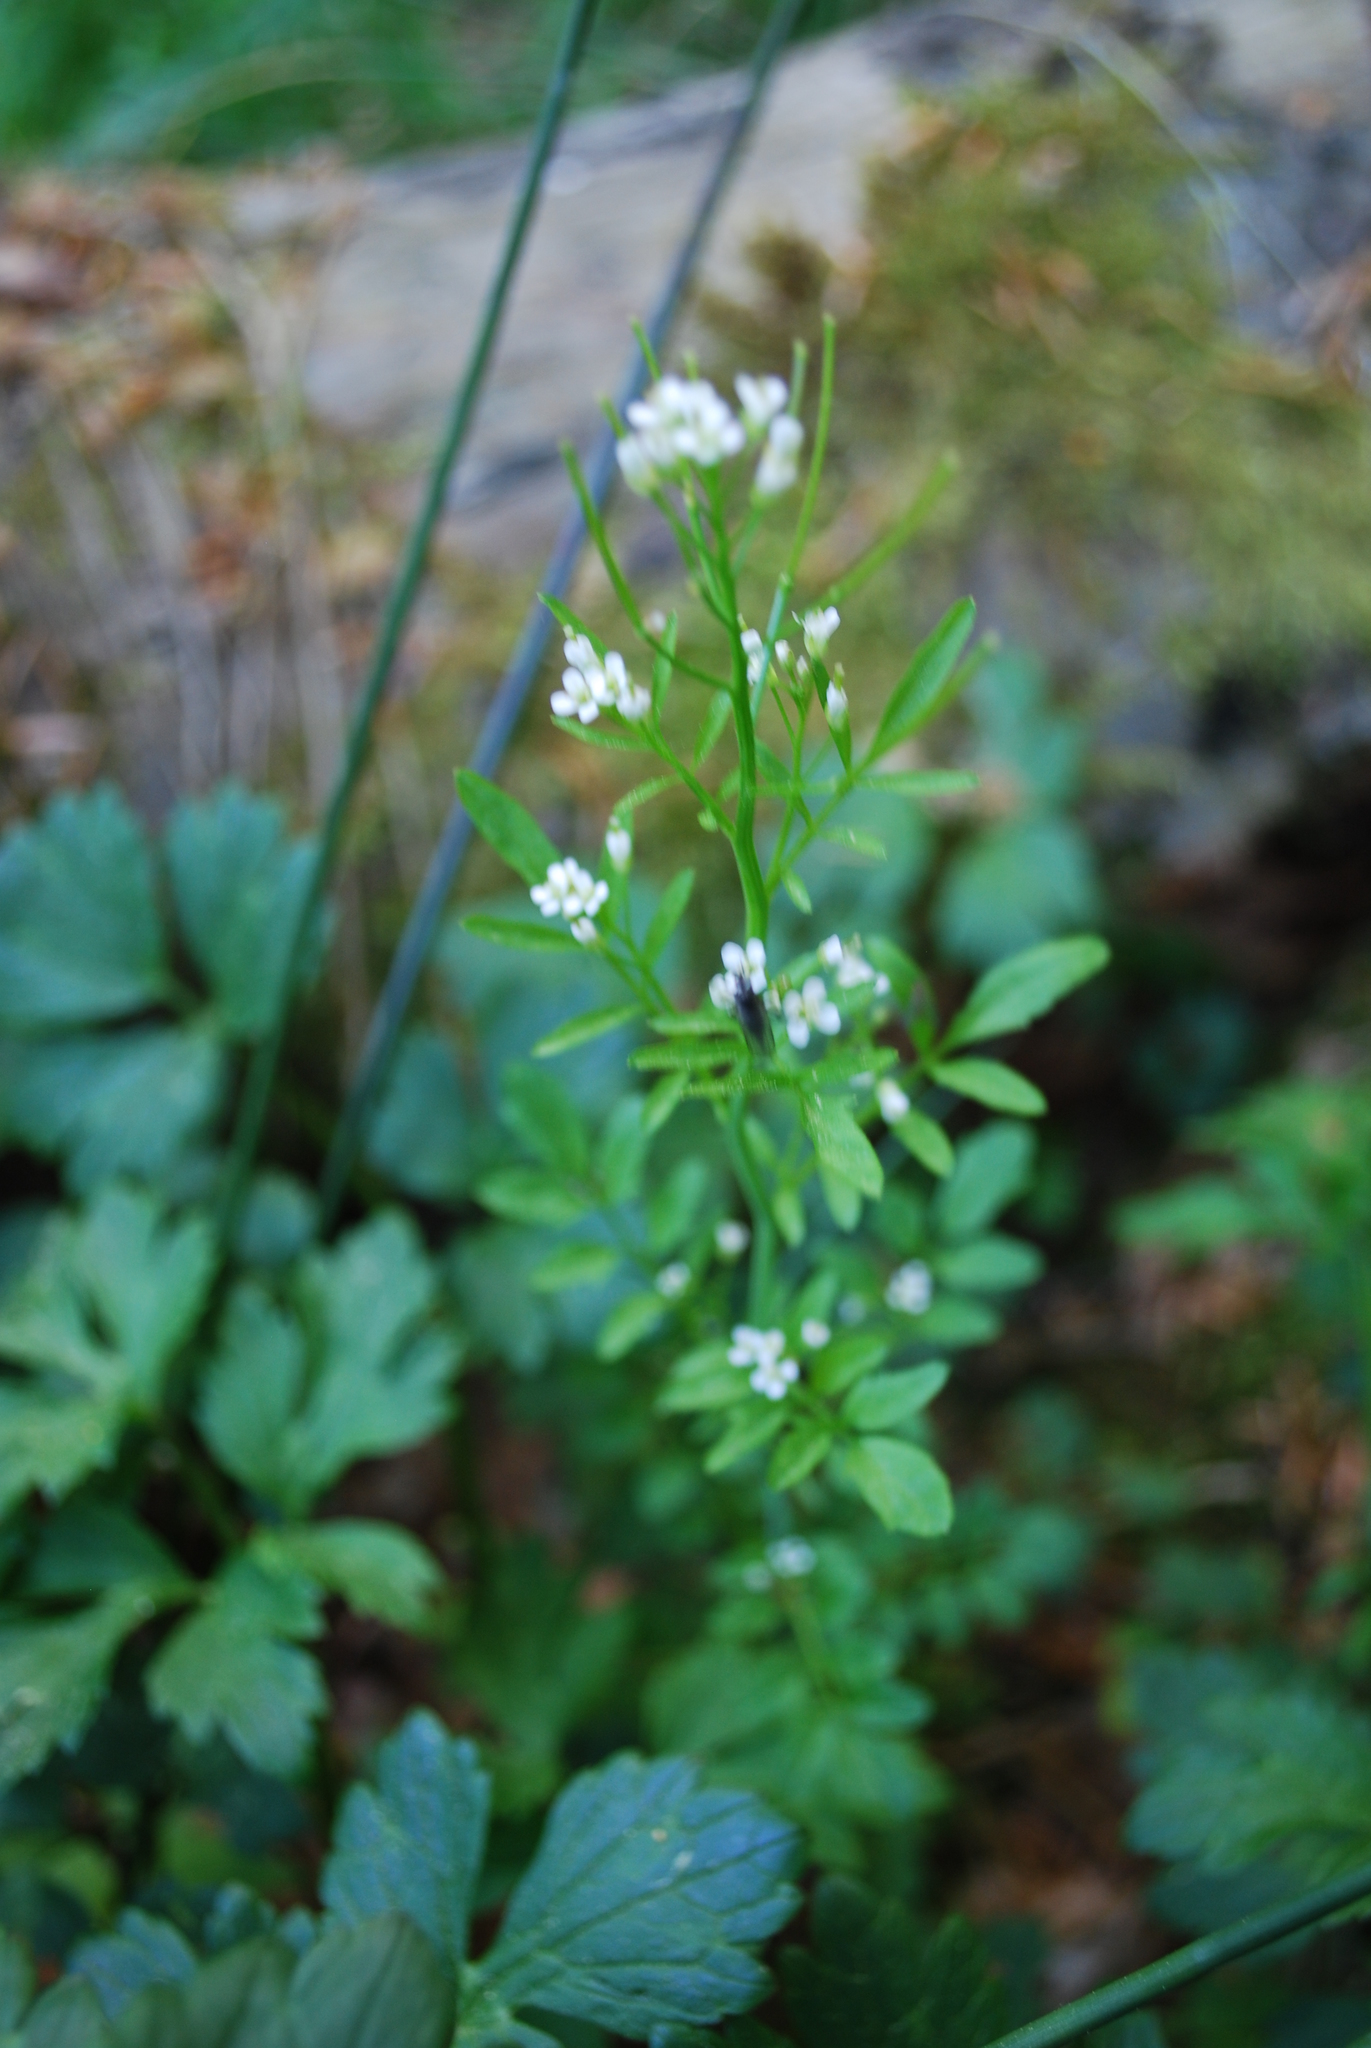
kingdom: Plantae
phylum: Tracheophyta
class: Magnoliopsida
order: Brassicales
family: Brassicaceae
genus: Cardamine
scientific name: Cardamine hirsuta
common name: Hairy bittercress
